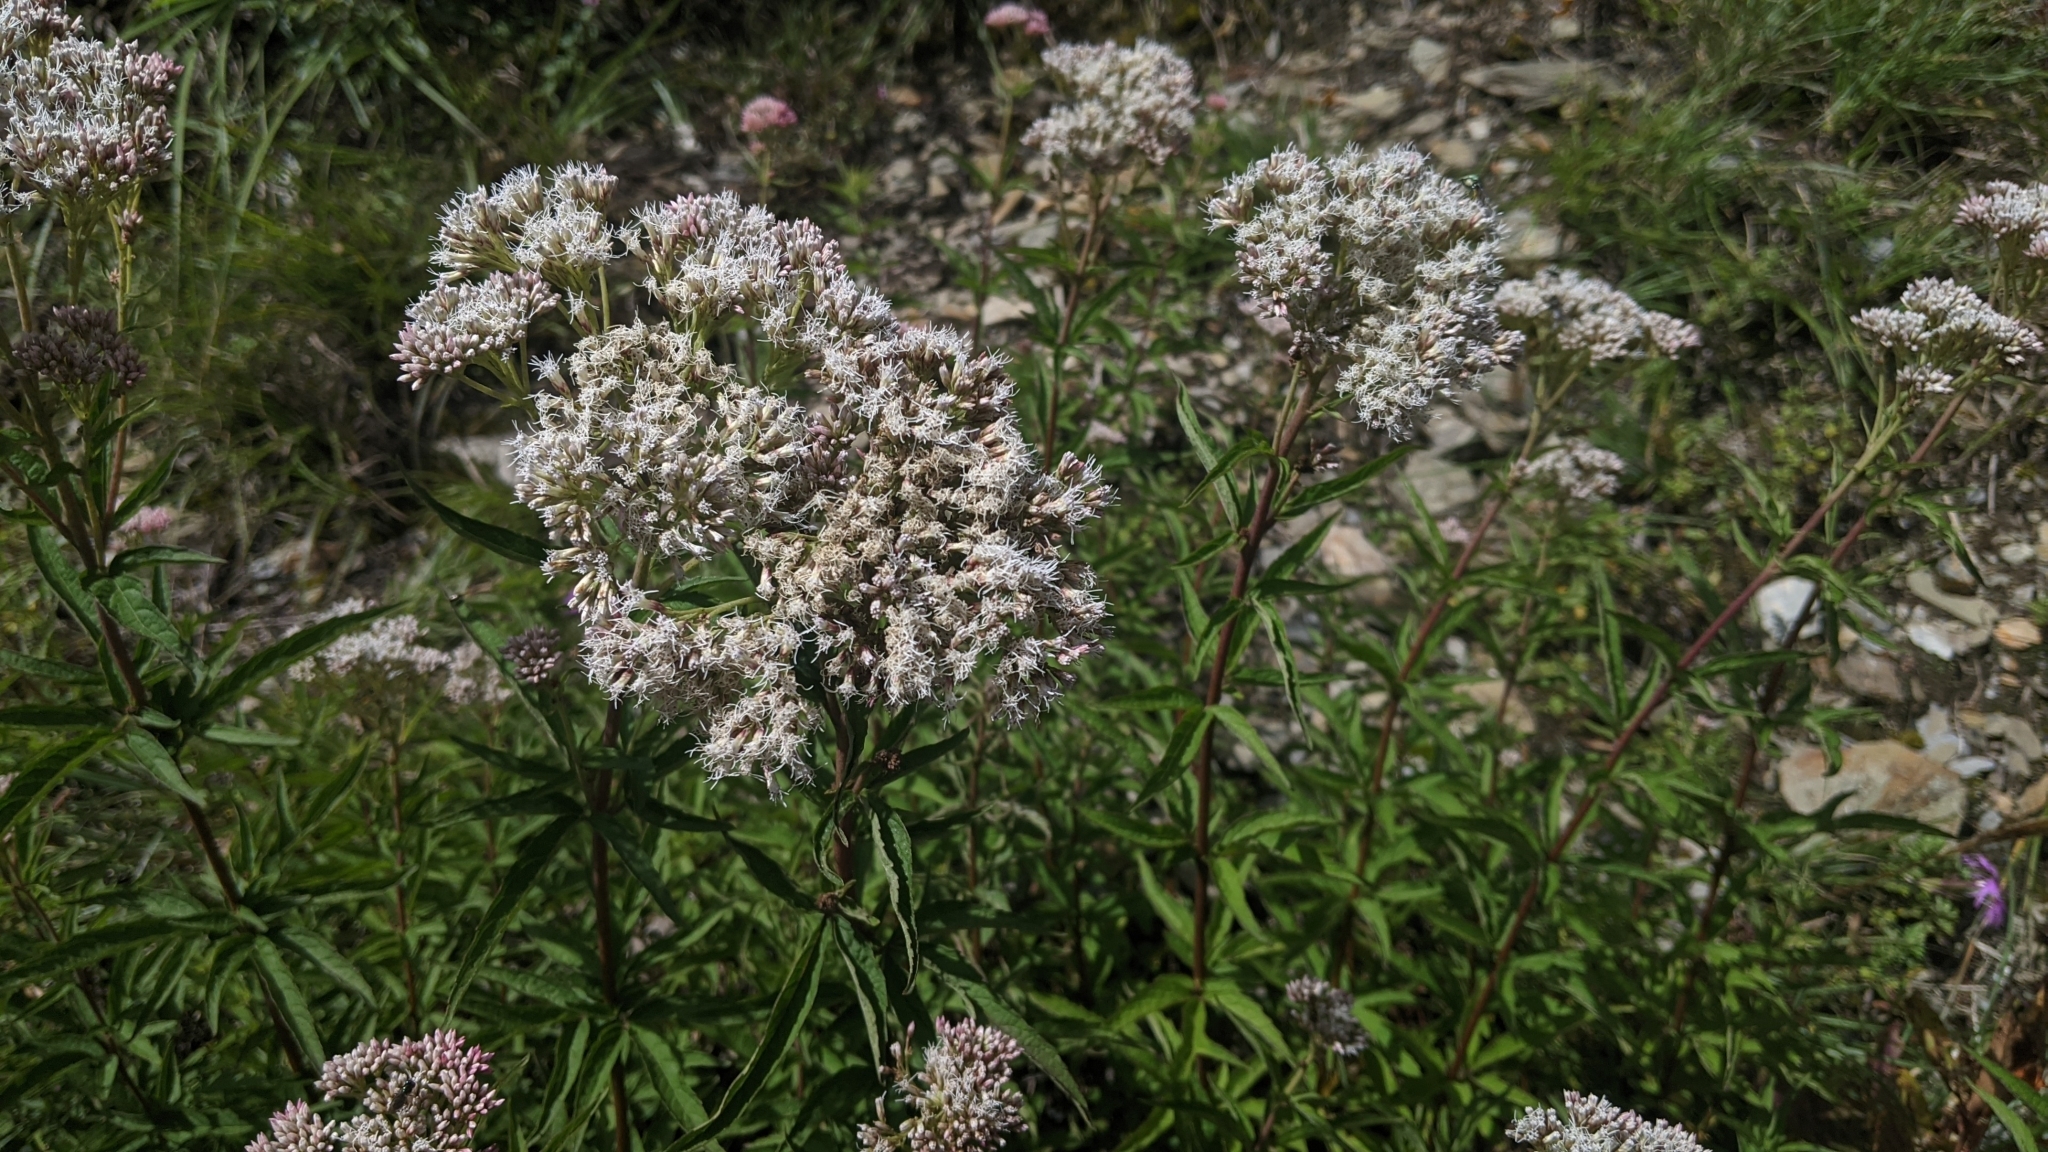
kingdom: Plantae
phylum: Tracheophyta
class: Magnoliopsida
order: Asterales
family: Asteraceae
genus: Eupatorium
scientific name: Eupatorium formosanum
